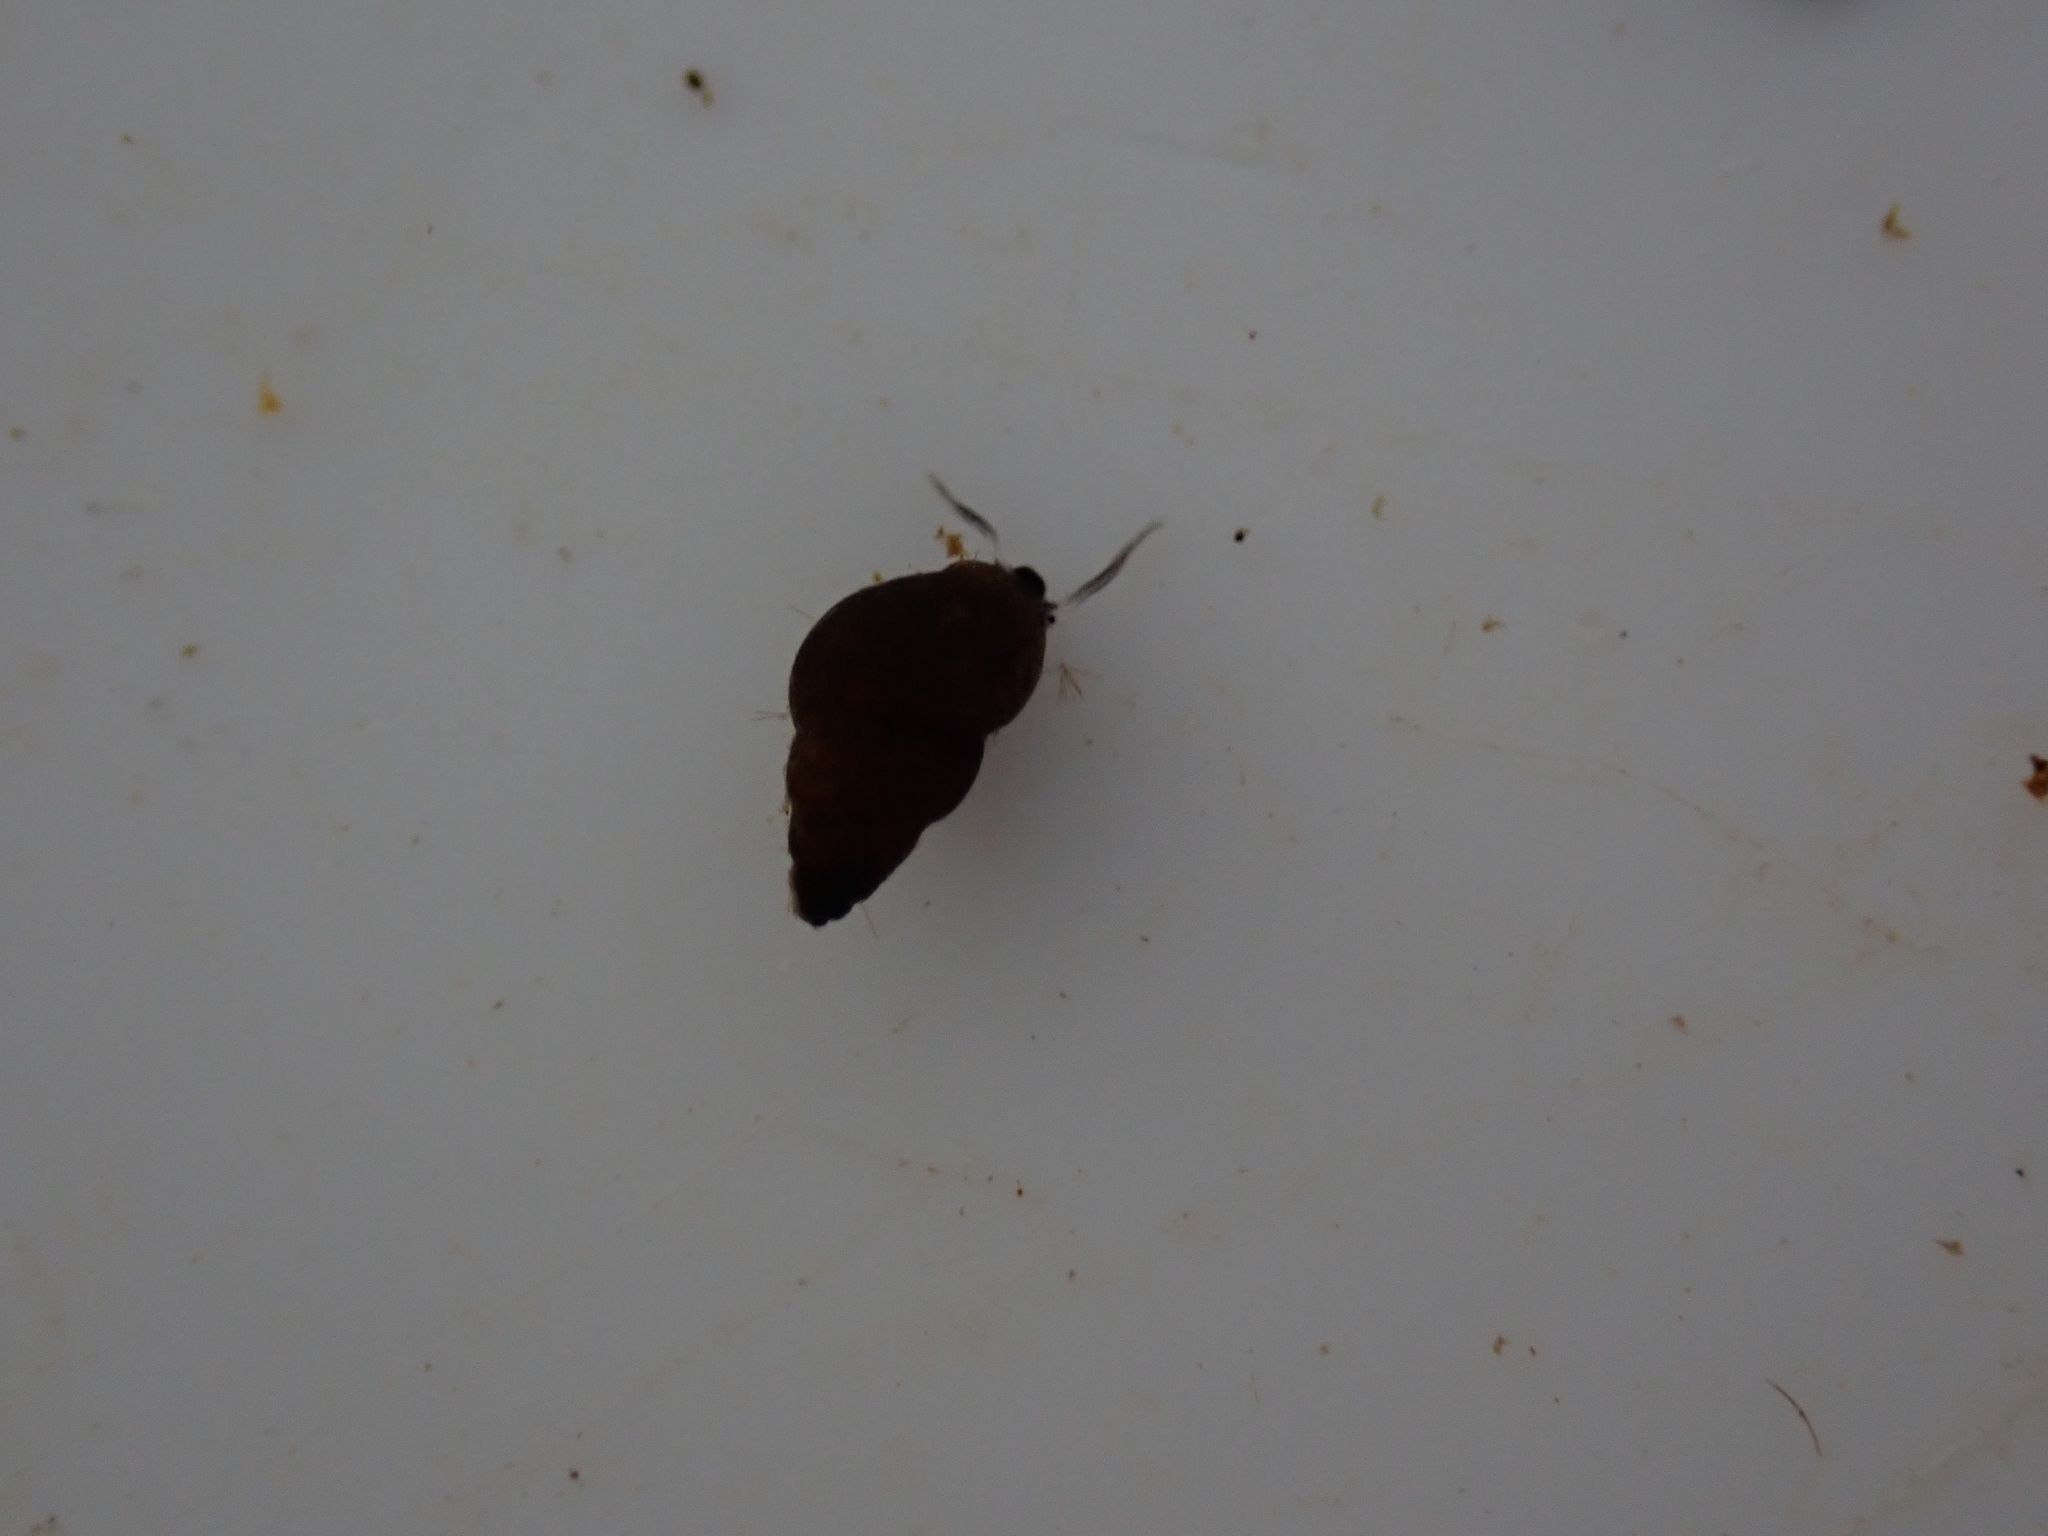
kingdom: Animalia
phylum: Mollusca
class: Gastropoda
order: Littorinimorpha
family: Tateidae
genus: Potamopyrgus
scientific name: Potamopyrgus antipodarum
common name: Jenkins' spire snail
